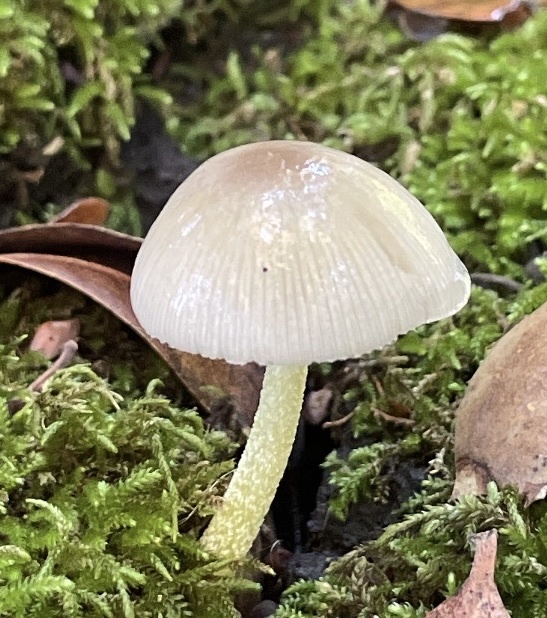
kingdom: Fungi
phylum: Basidiomycota
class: Agaricomycetes
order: Agaricales
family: Bolbitiaceae
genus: Bolbitius
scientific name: Bolbitius reticulatus
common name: Netted fieldcap
